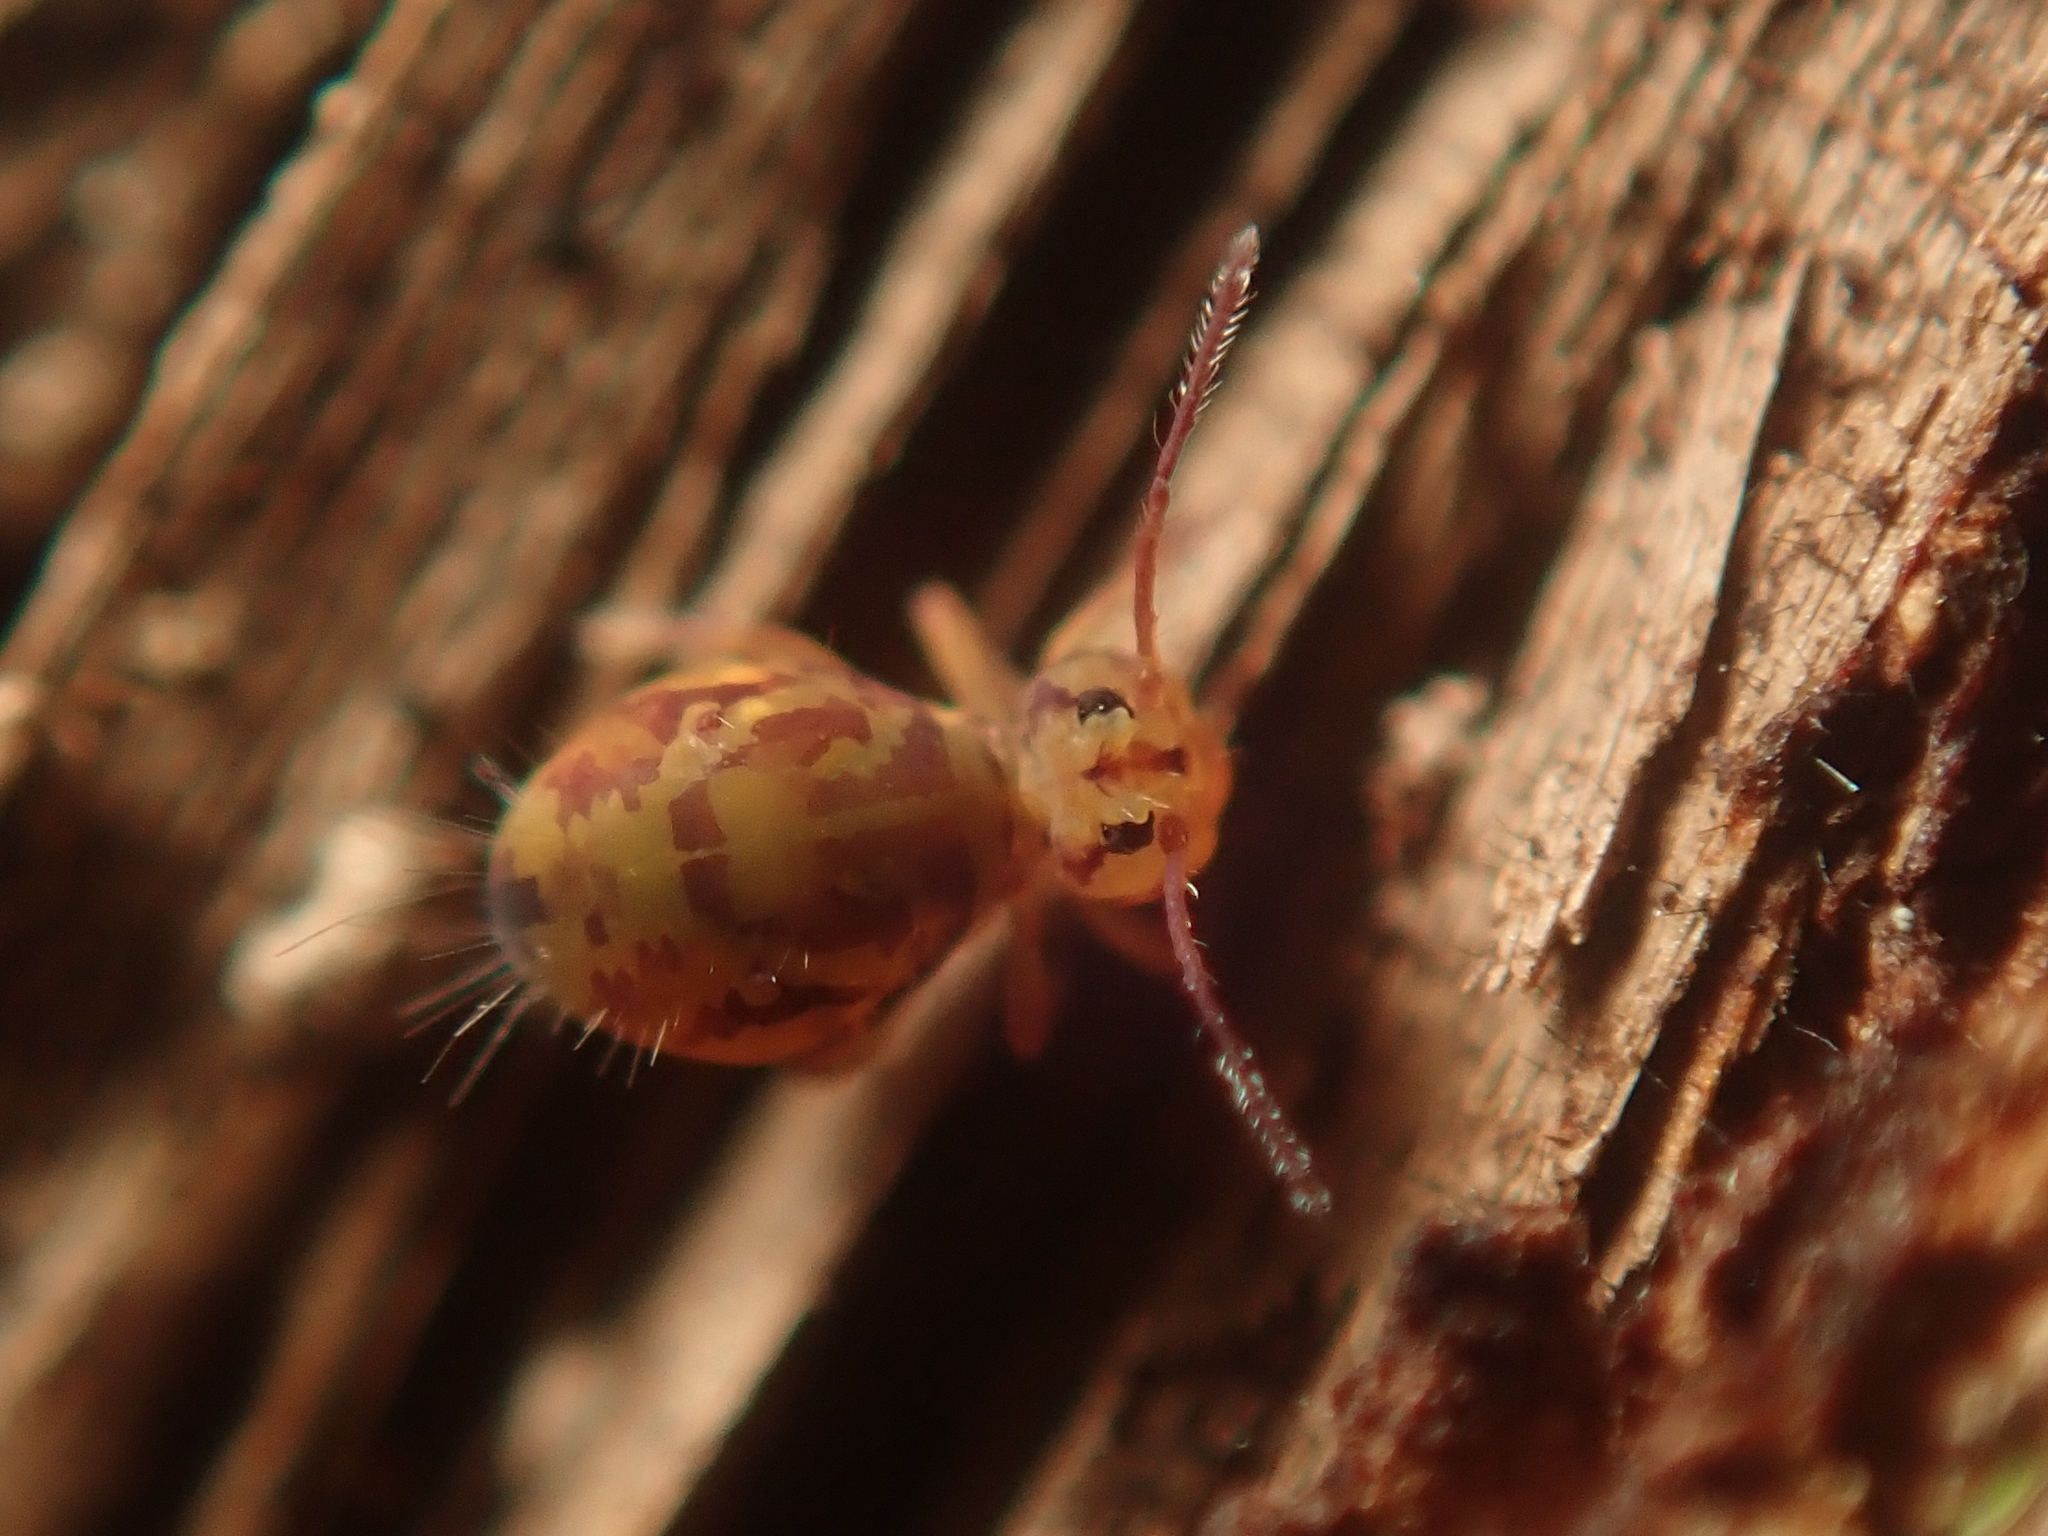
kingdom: Animalia
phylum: Arthropoda
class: Collembola
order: Symphypleona
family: Dicyrtomidae
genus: Dicyrtomina
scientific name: Dicyrtomina ornata
